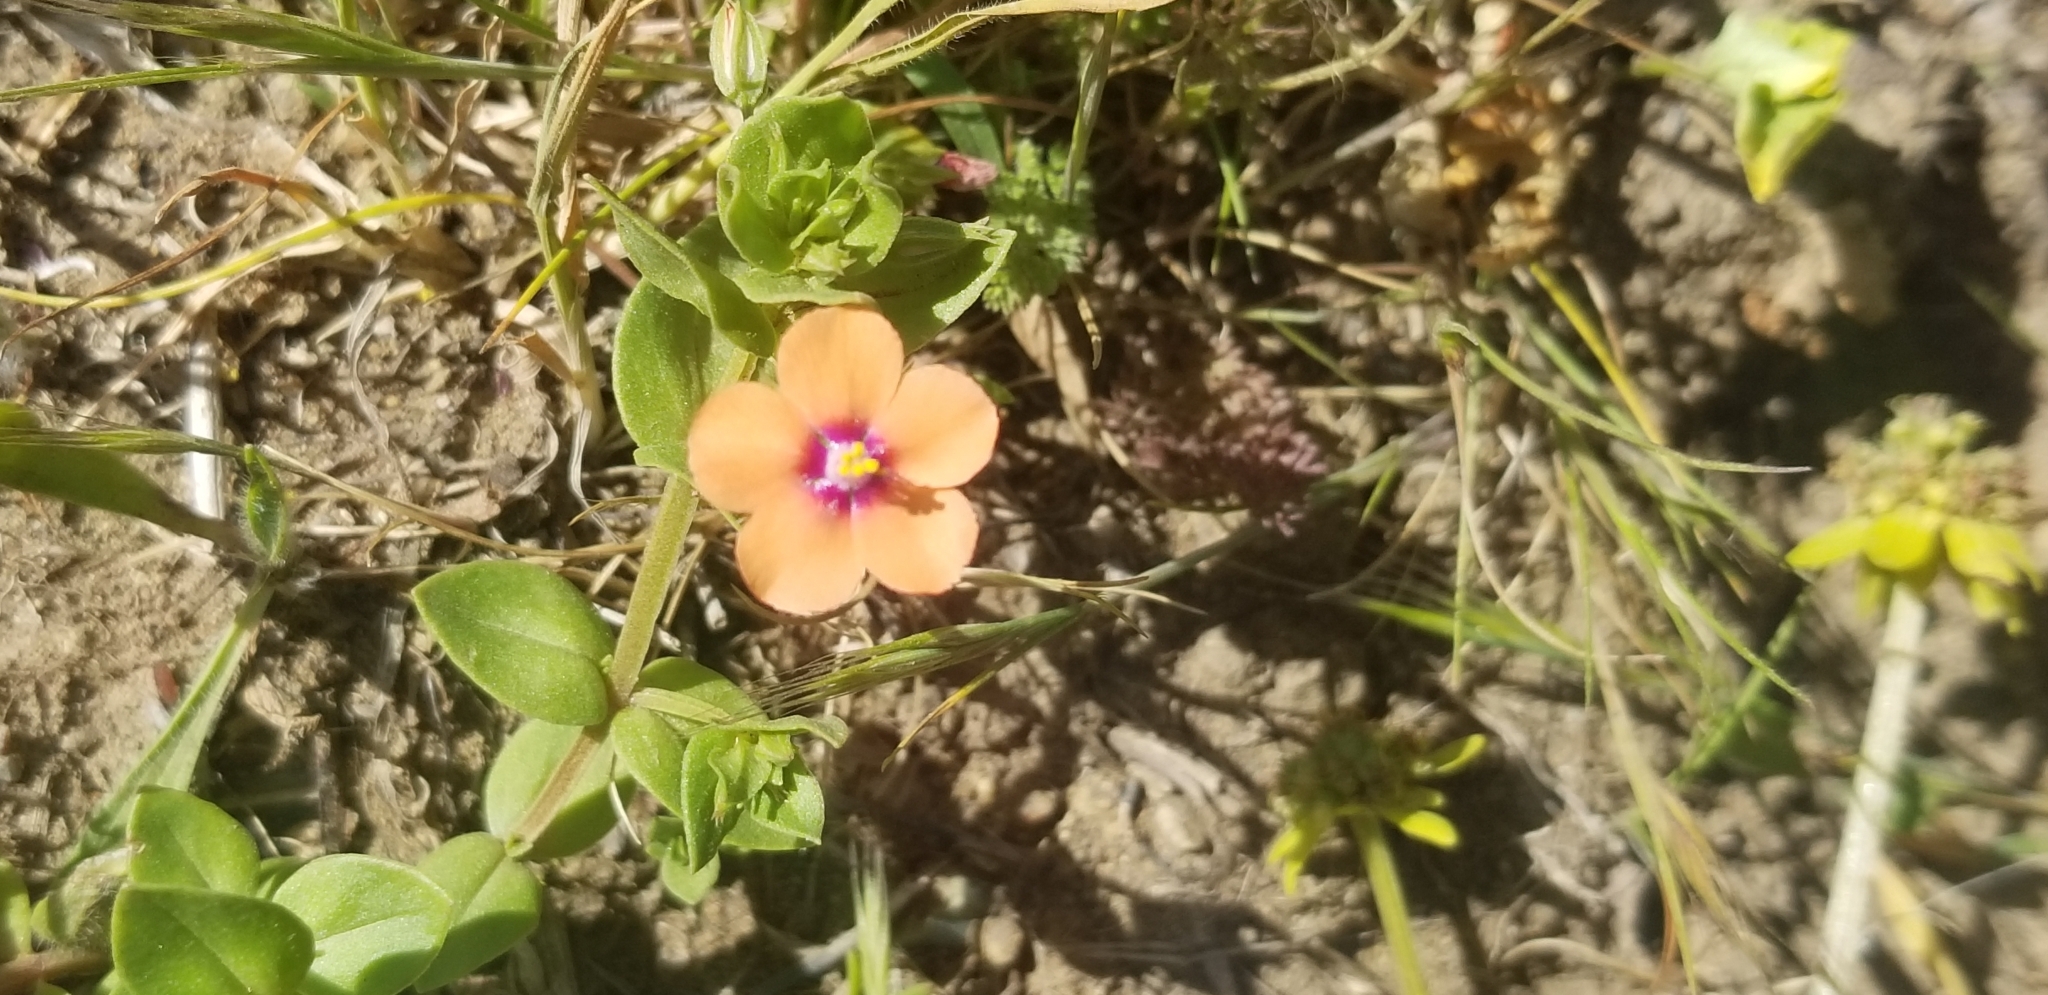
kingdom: Plantae
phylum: Tracheophyta
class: Magnoliopsida
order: Ericales
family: Primulaceae
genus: Lysimachia
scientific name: Lysimachia arvensis
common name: Scarlet pimpernel
